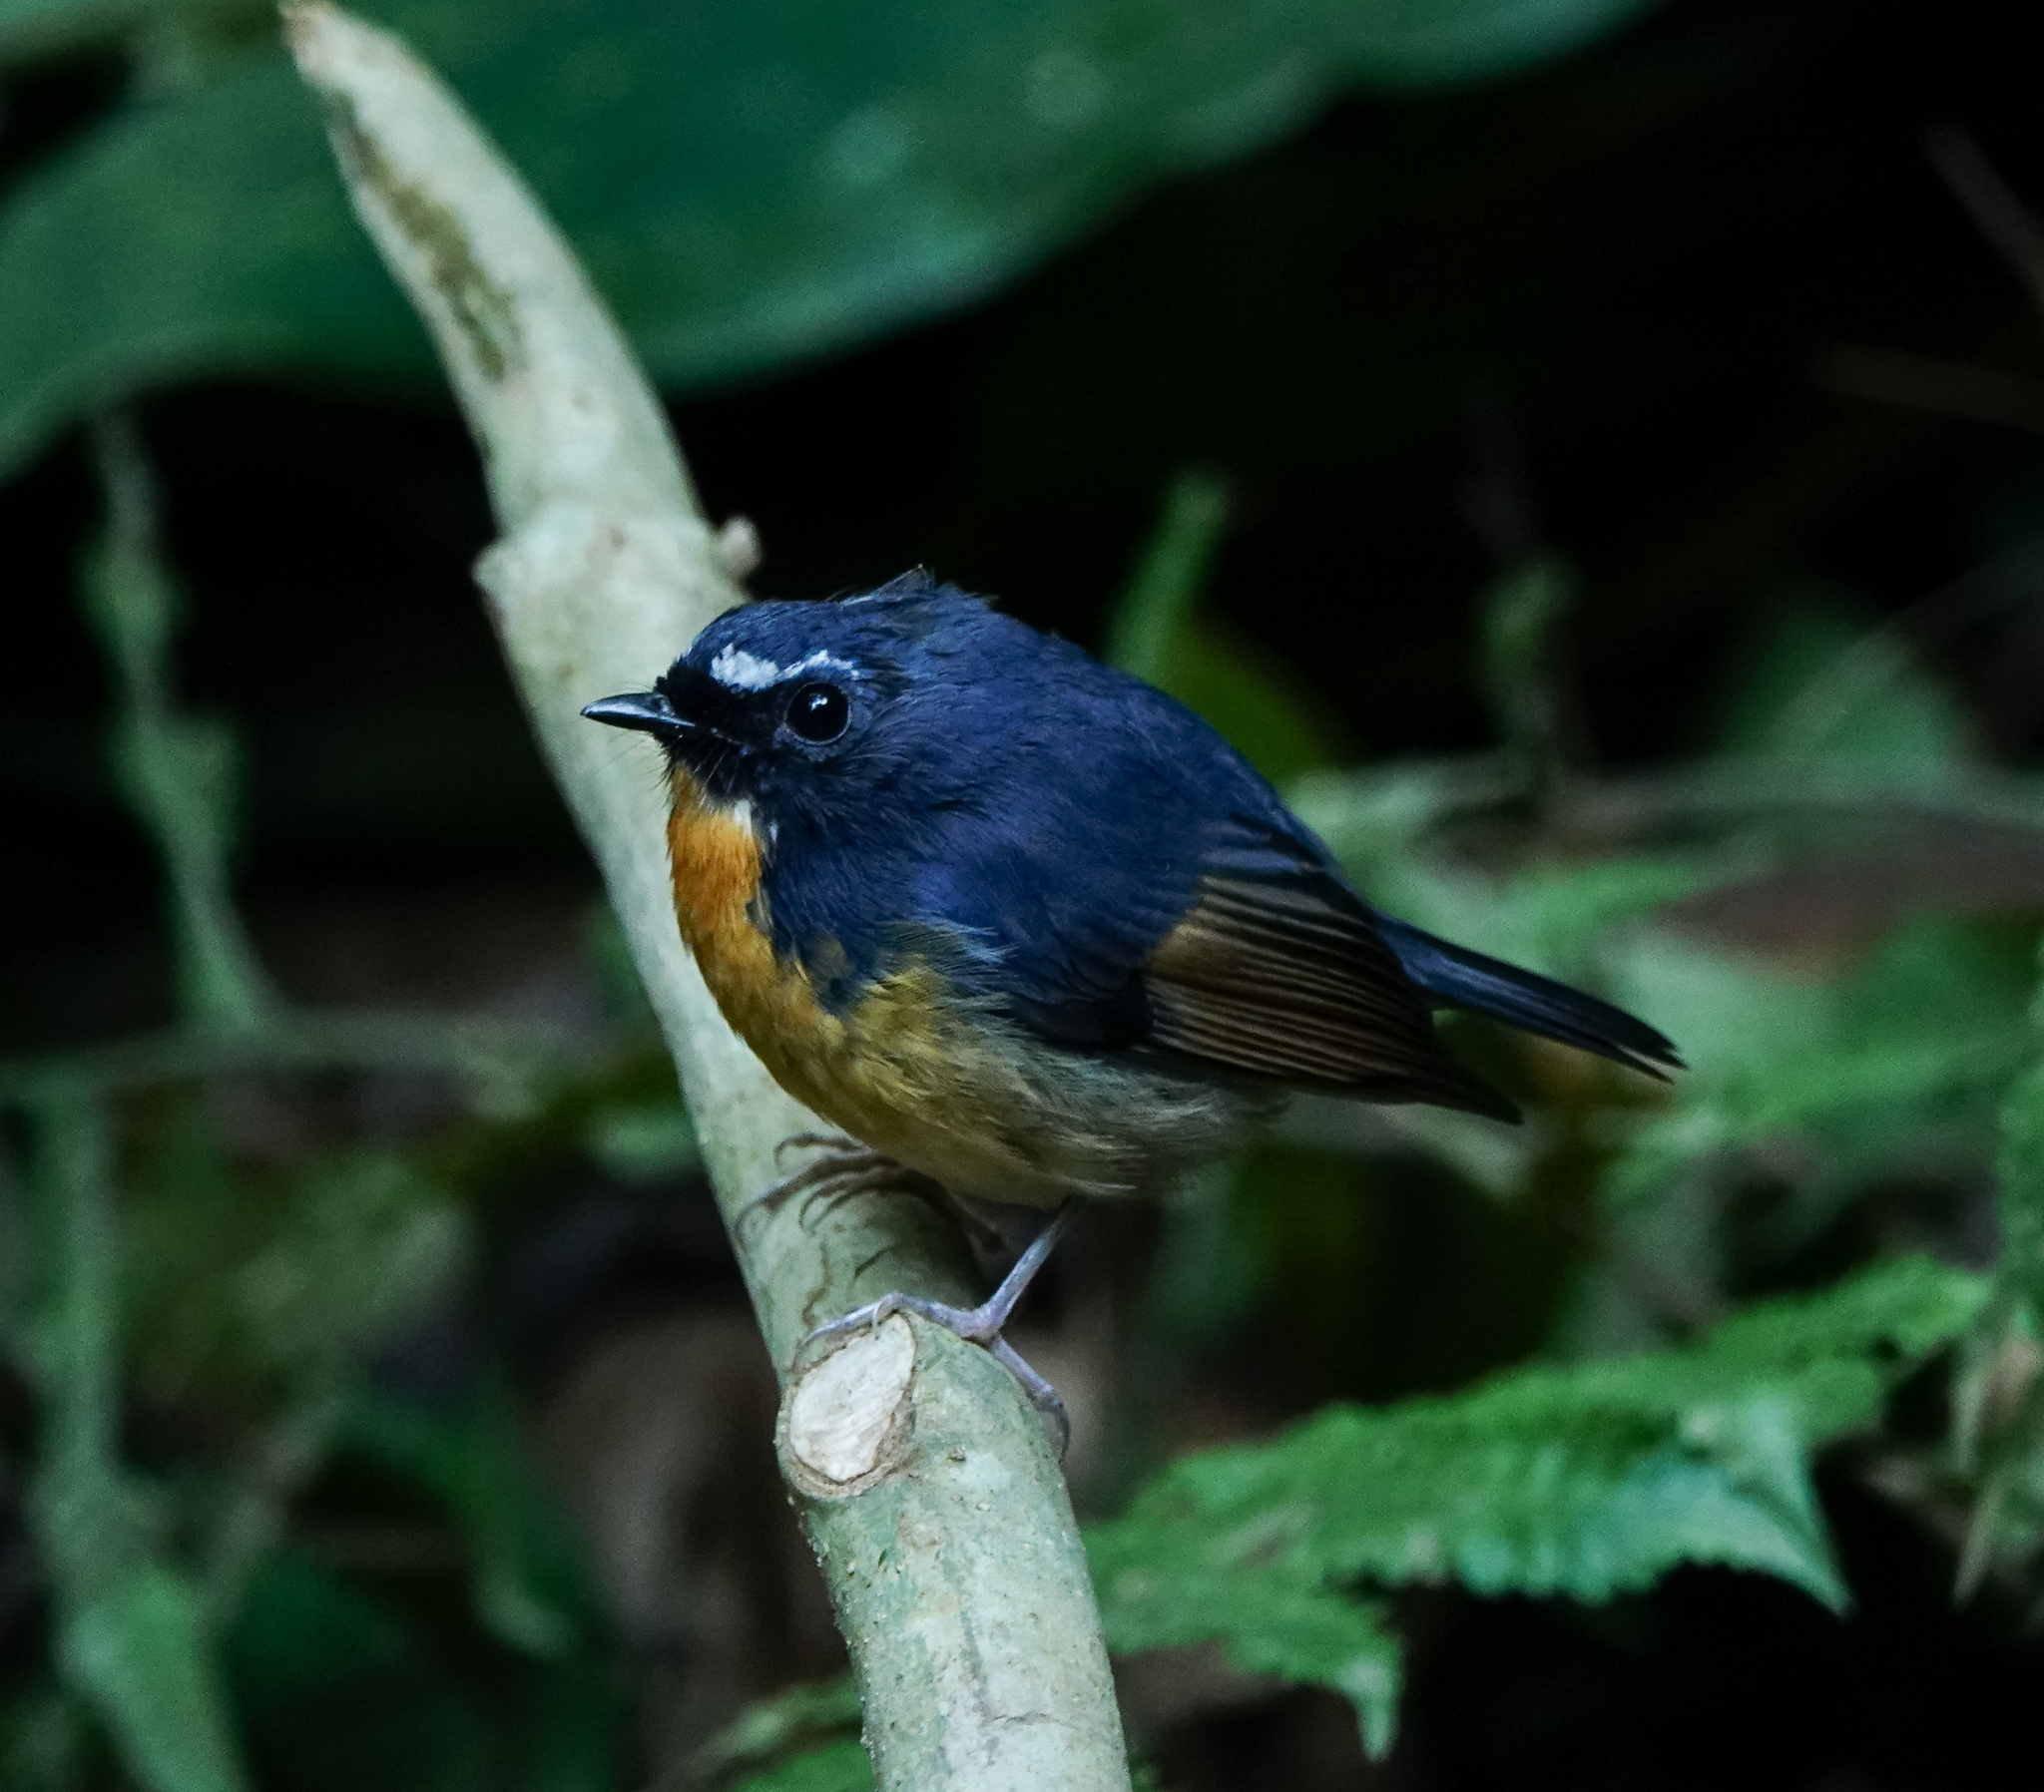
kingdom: Animalia
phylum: Chordata
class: Aves
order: Passeriformes
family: Muscicapidae
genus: Ficedula
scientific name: Ficedula hyperythra
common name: Snowy-browed flycatcher
